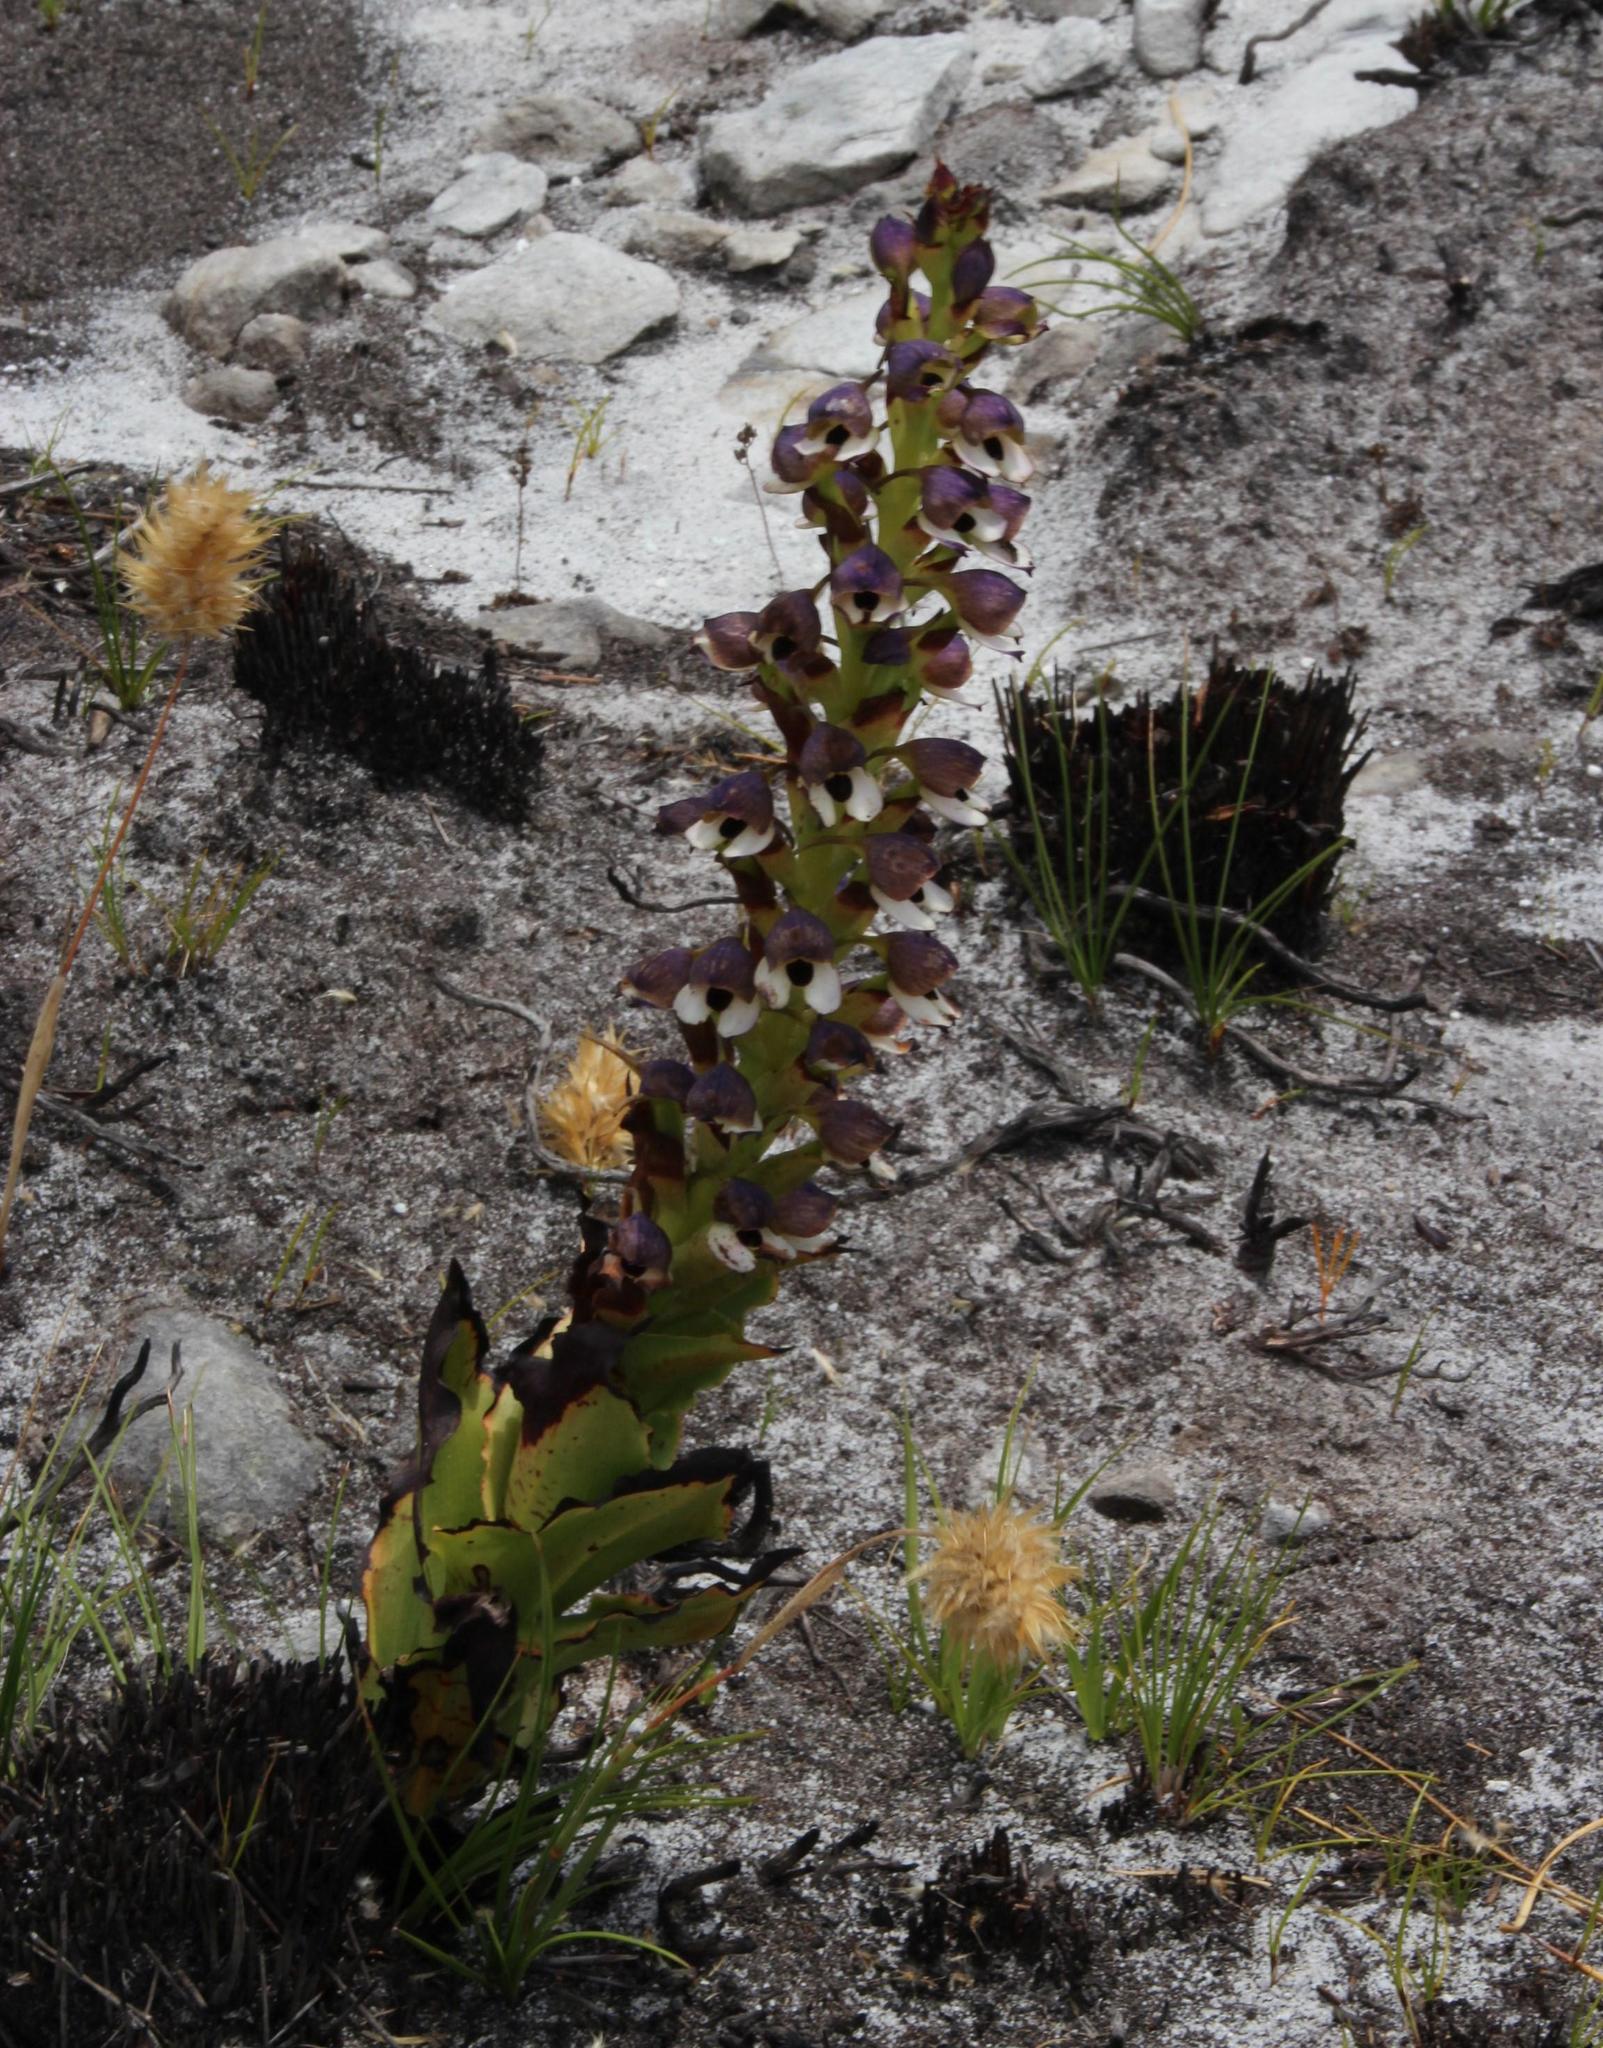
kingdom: Plantae
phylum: Tracheophyta
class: Liliopsida
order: Asparagales
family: Orchidaceae
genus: Disa
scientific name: Disa cornuta
